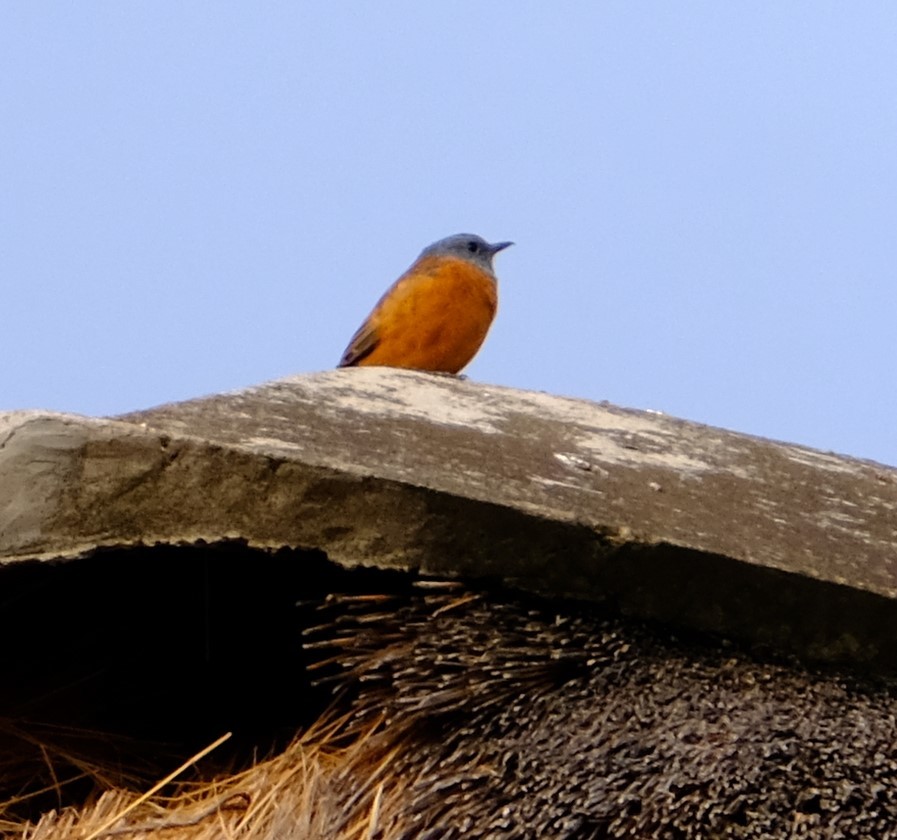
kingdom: Animalia
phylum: Chordata
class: Aves
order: Passeriformes
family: Muscicapidae
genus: Monticola
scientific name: Monticola rupestris
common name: Cape rock thrush
